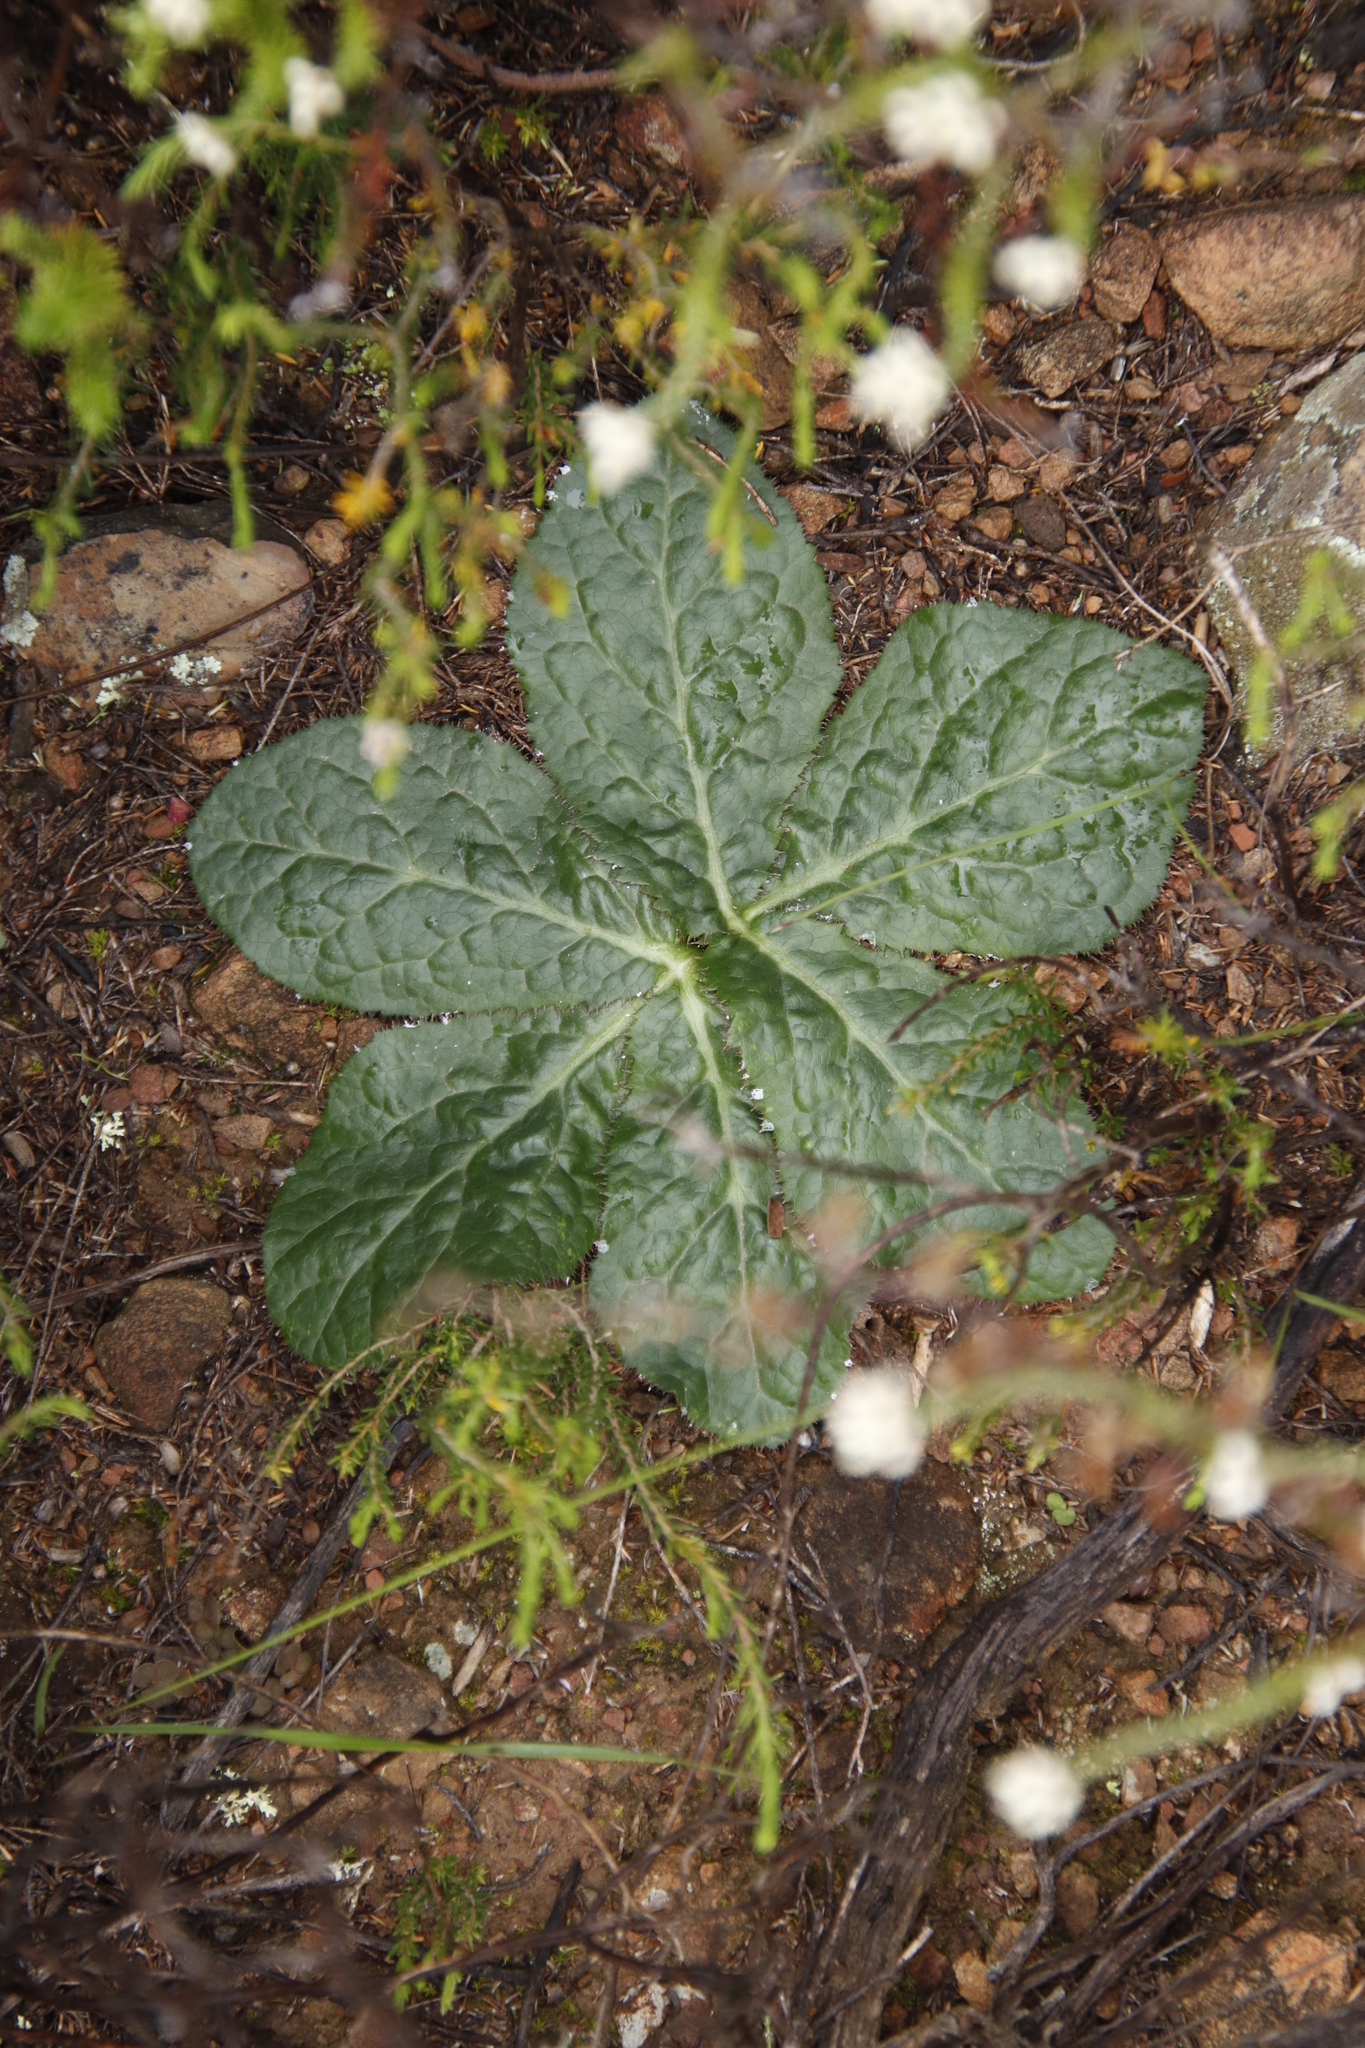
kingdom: Plantae
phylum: Tracheophyta
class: Magnoliopsida
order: Apiales
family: Apiaceae
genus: Arctopus
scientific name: Arctopus echinatus
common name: Platdoring
